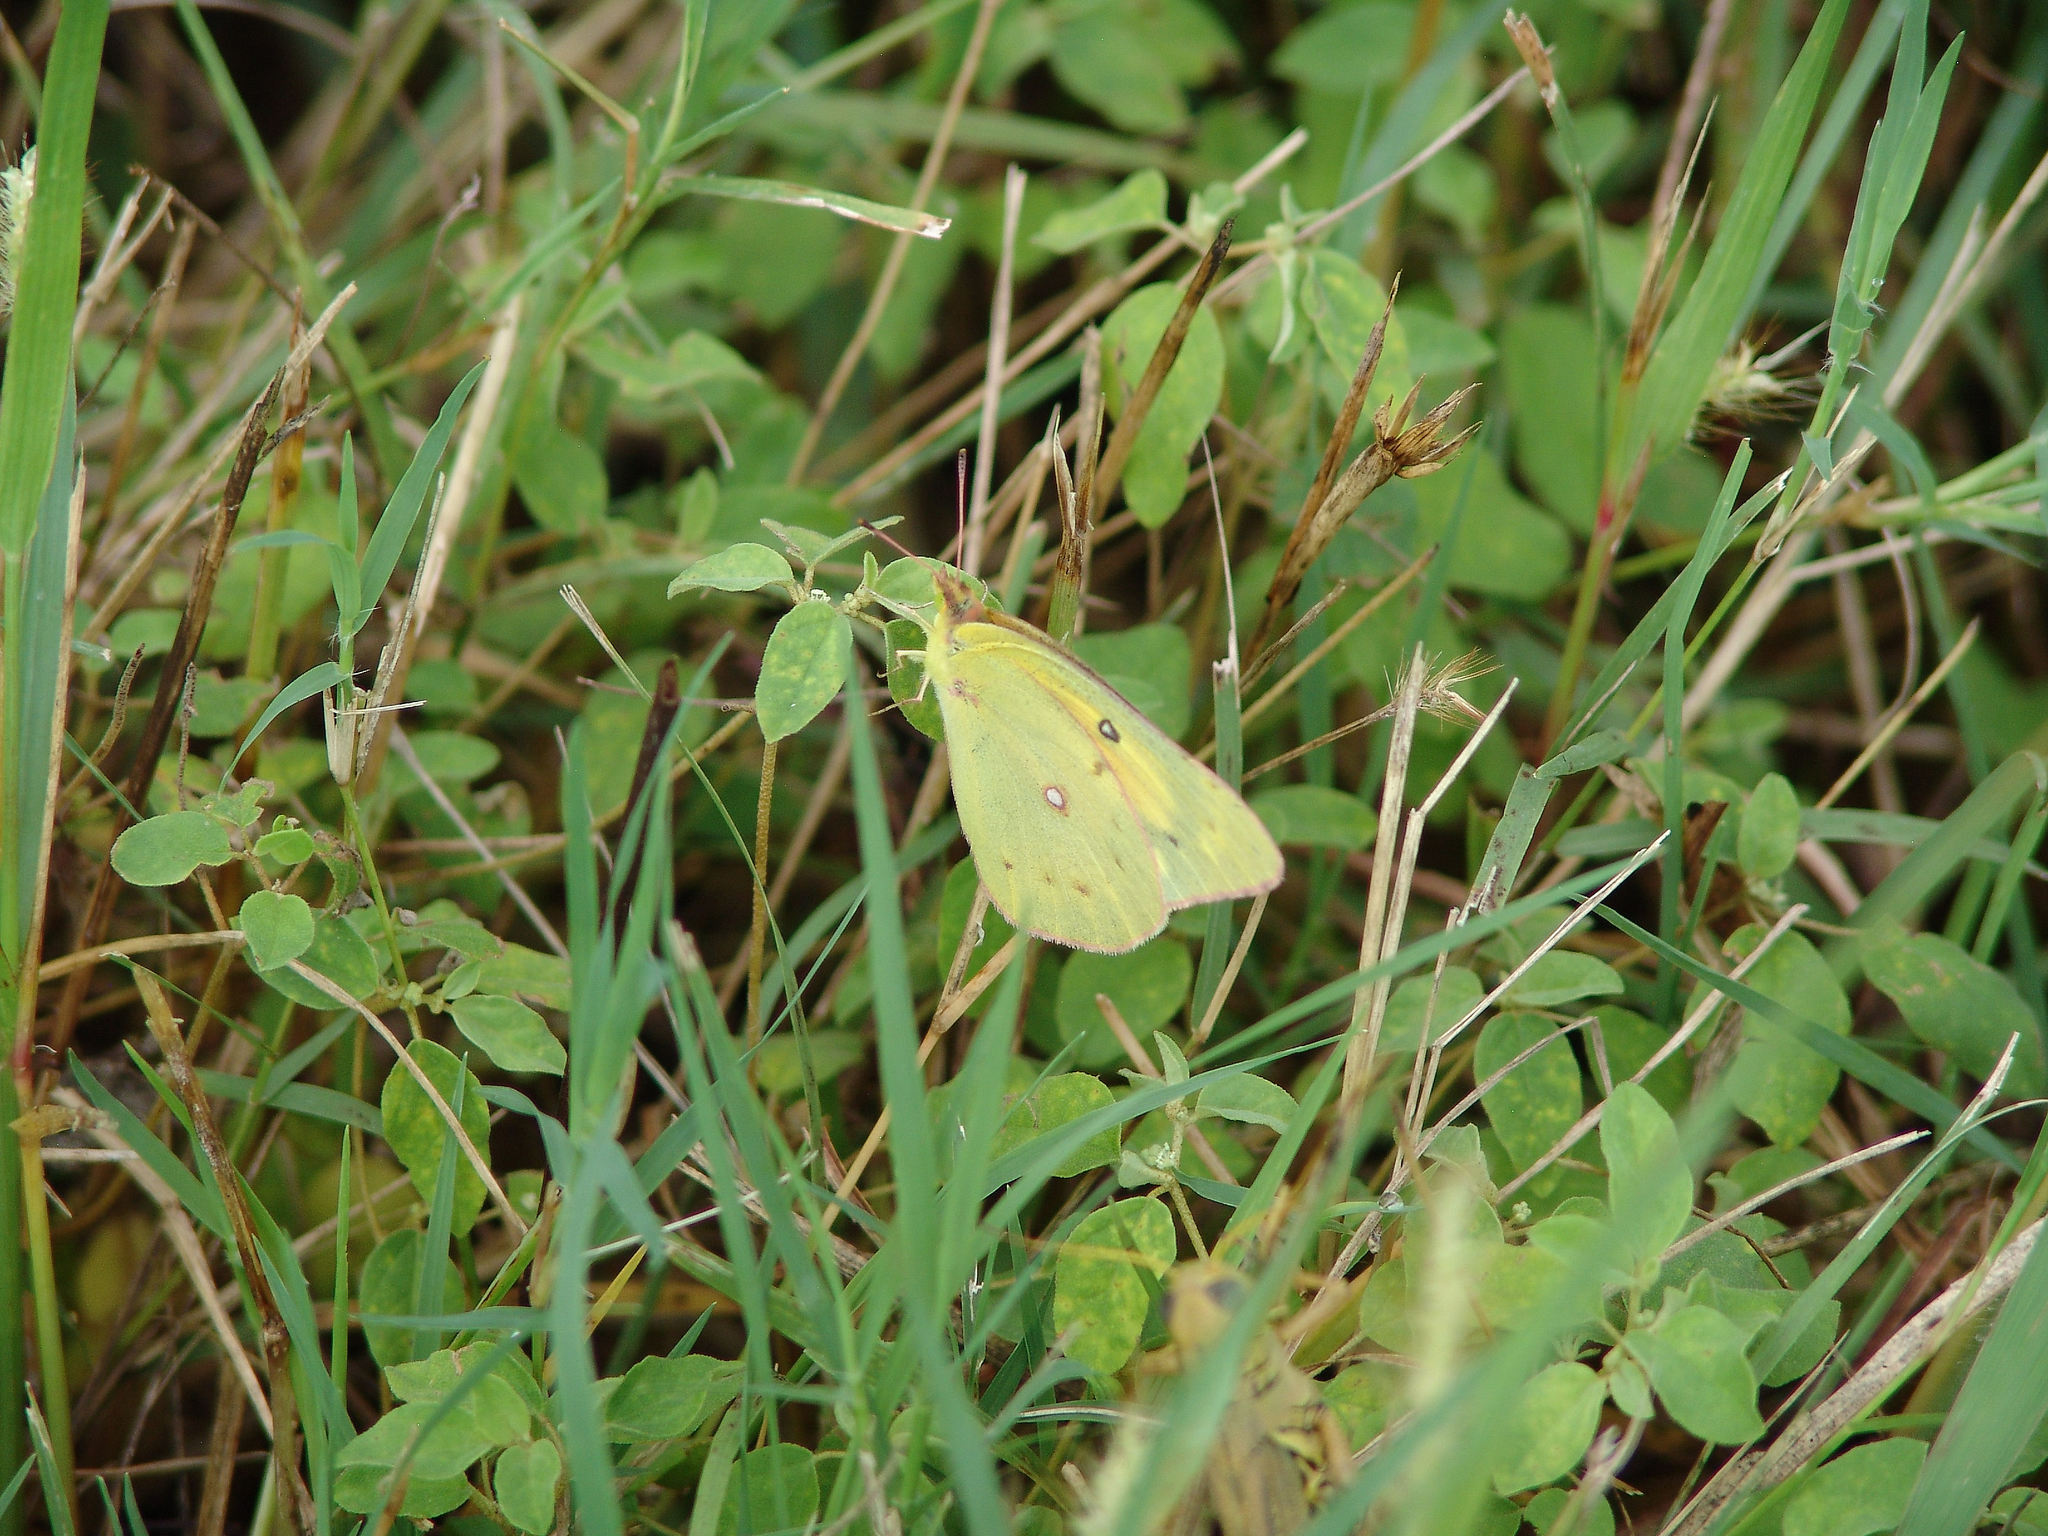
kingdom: Animalia
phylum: Arthropoda
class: Insecta
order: Lepidoptera
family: Pieridae
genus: Colias
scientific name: Colias eurytheme
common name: Alfalfa butterfly
